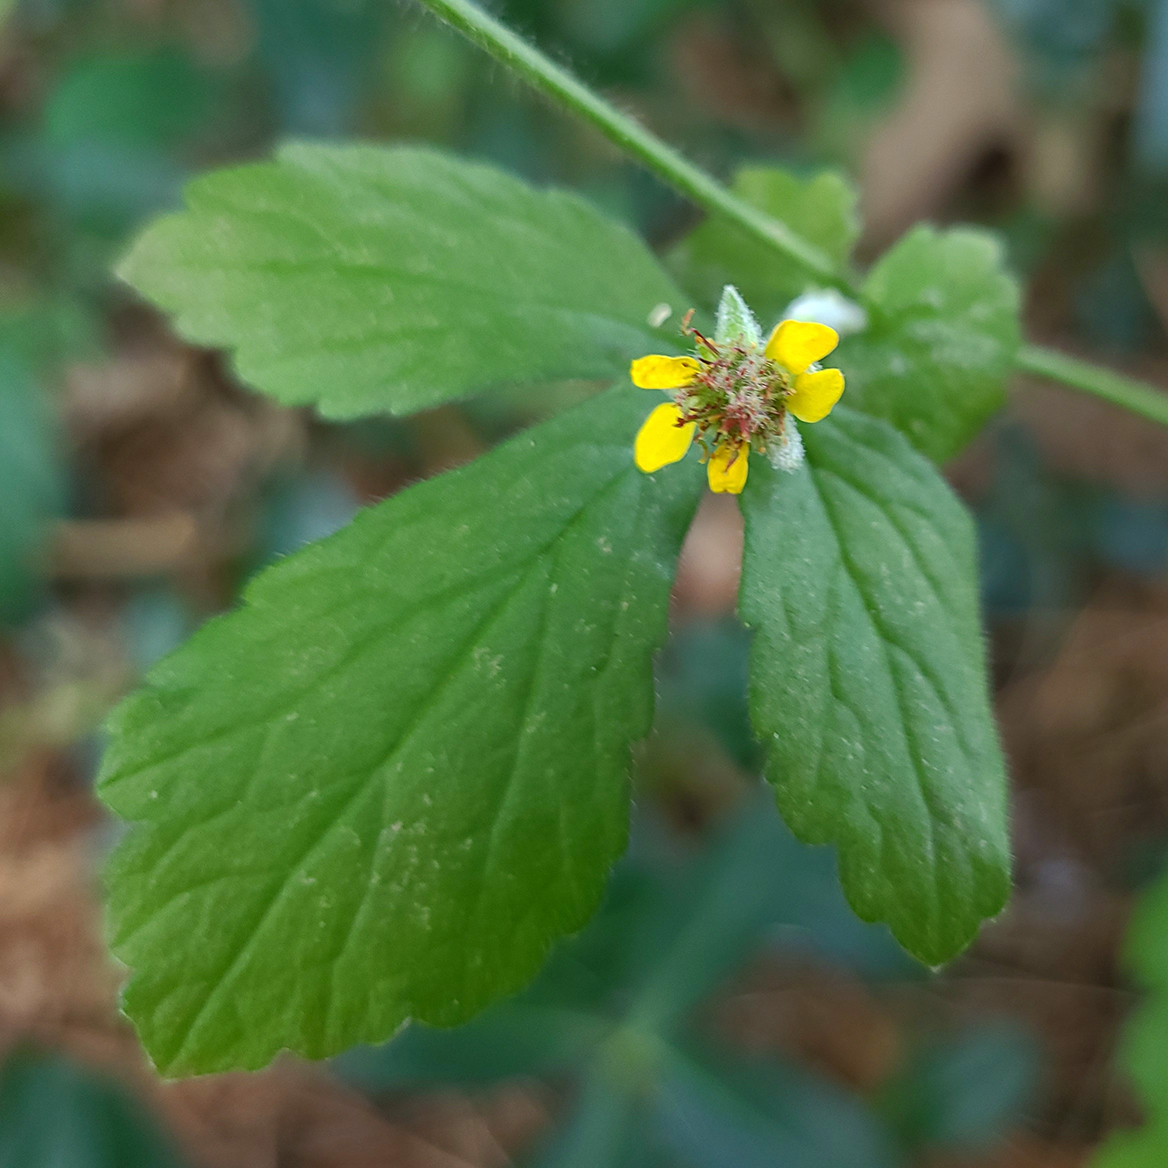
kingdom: Plantae
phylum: Tracheophyta
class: Magnoliopsida
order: Rosales
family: Rosaceae
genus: Geum
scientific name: Geum urbanum
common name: Wood avens
